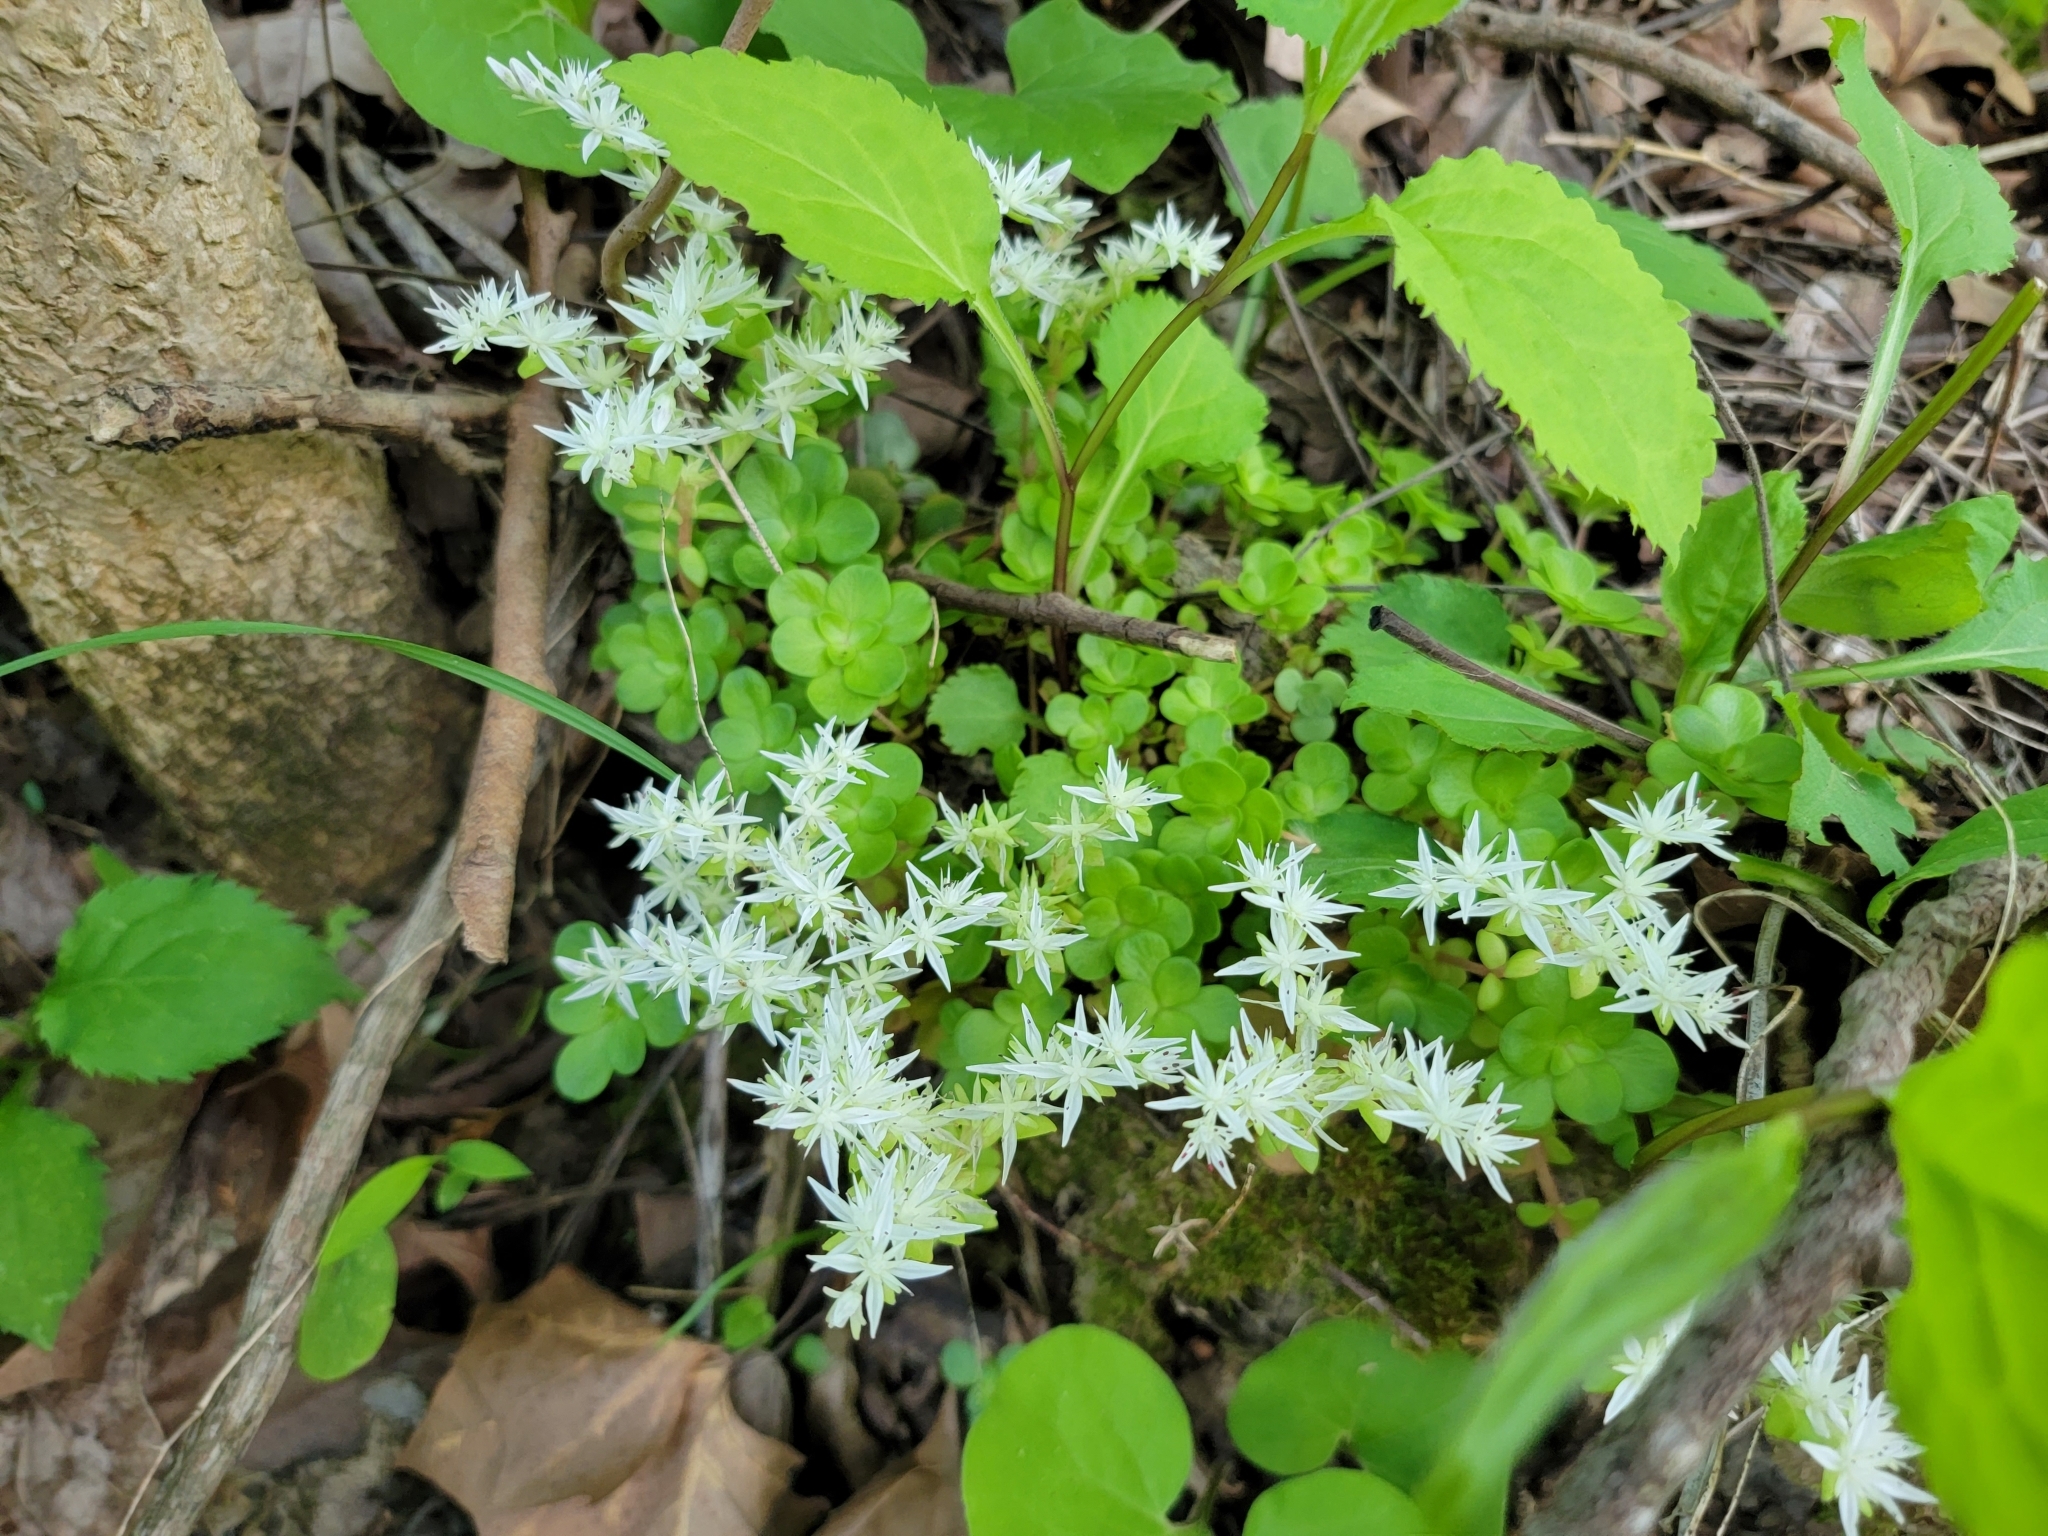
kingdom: Plantae
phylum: Tracheophyta
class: Magnoliopsida
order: Saxifragales
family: Crassulaceae
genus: Sedum
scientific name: Sedum ternatum
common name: Wild stonecrop
